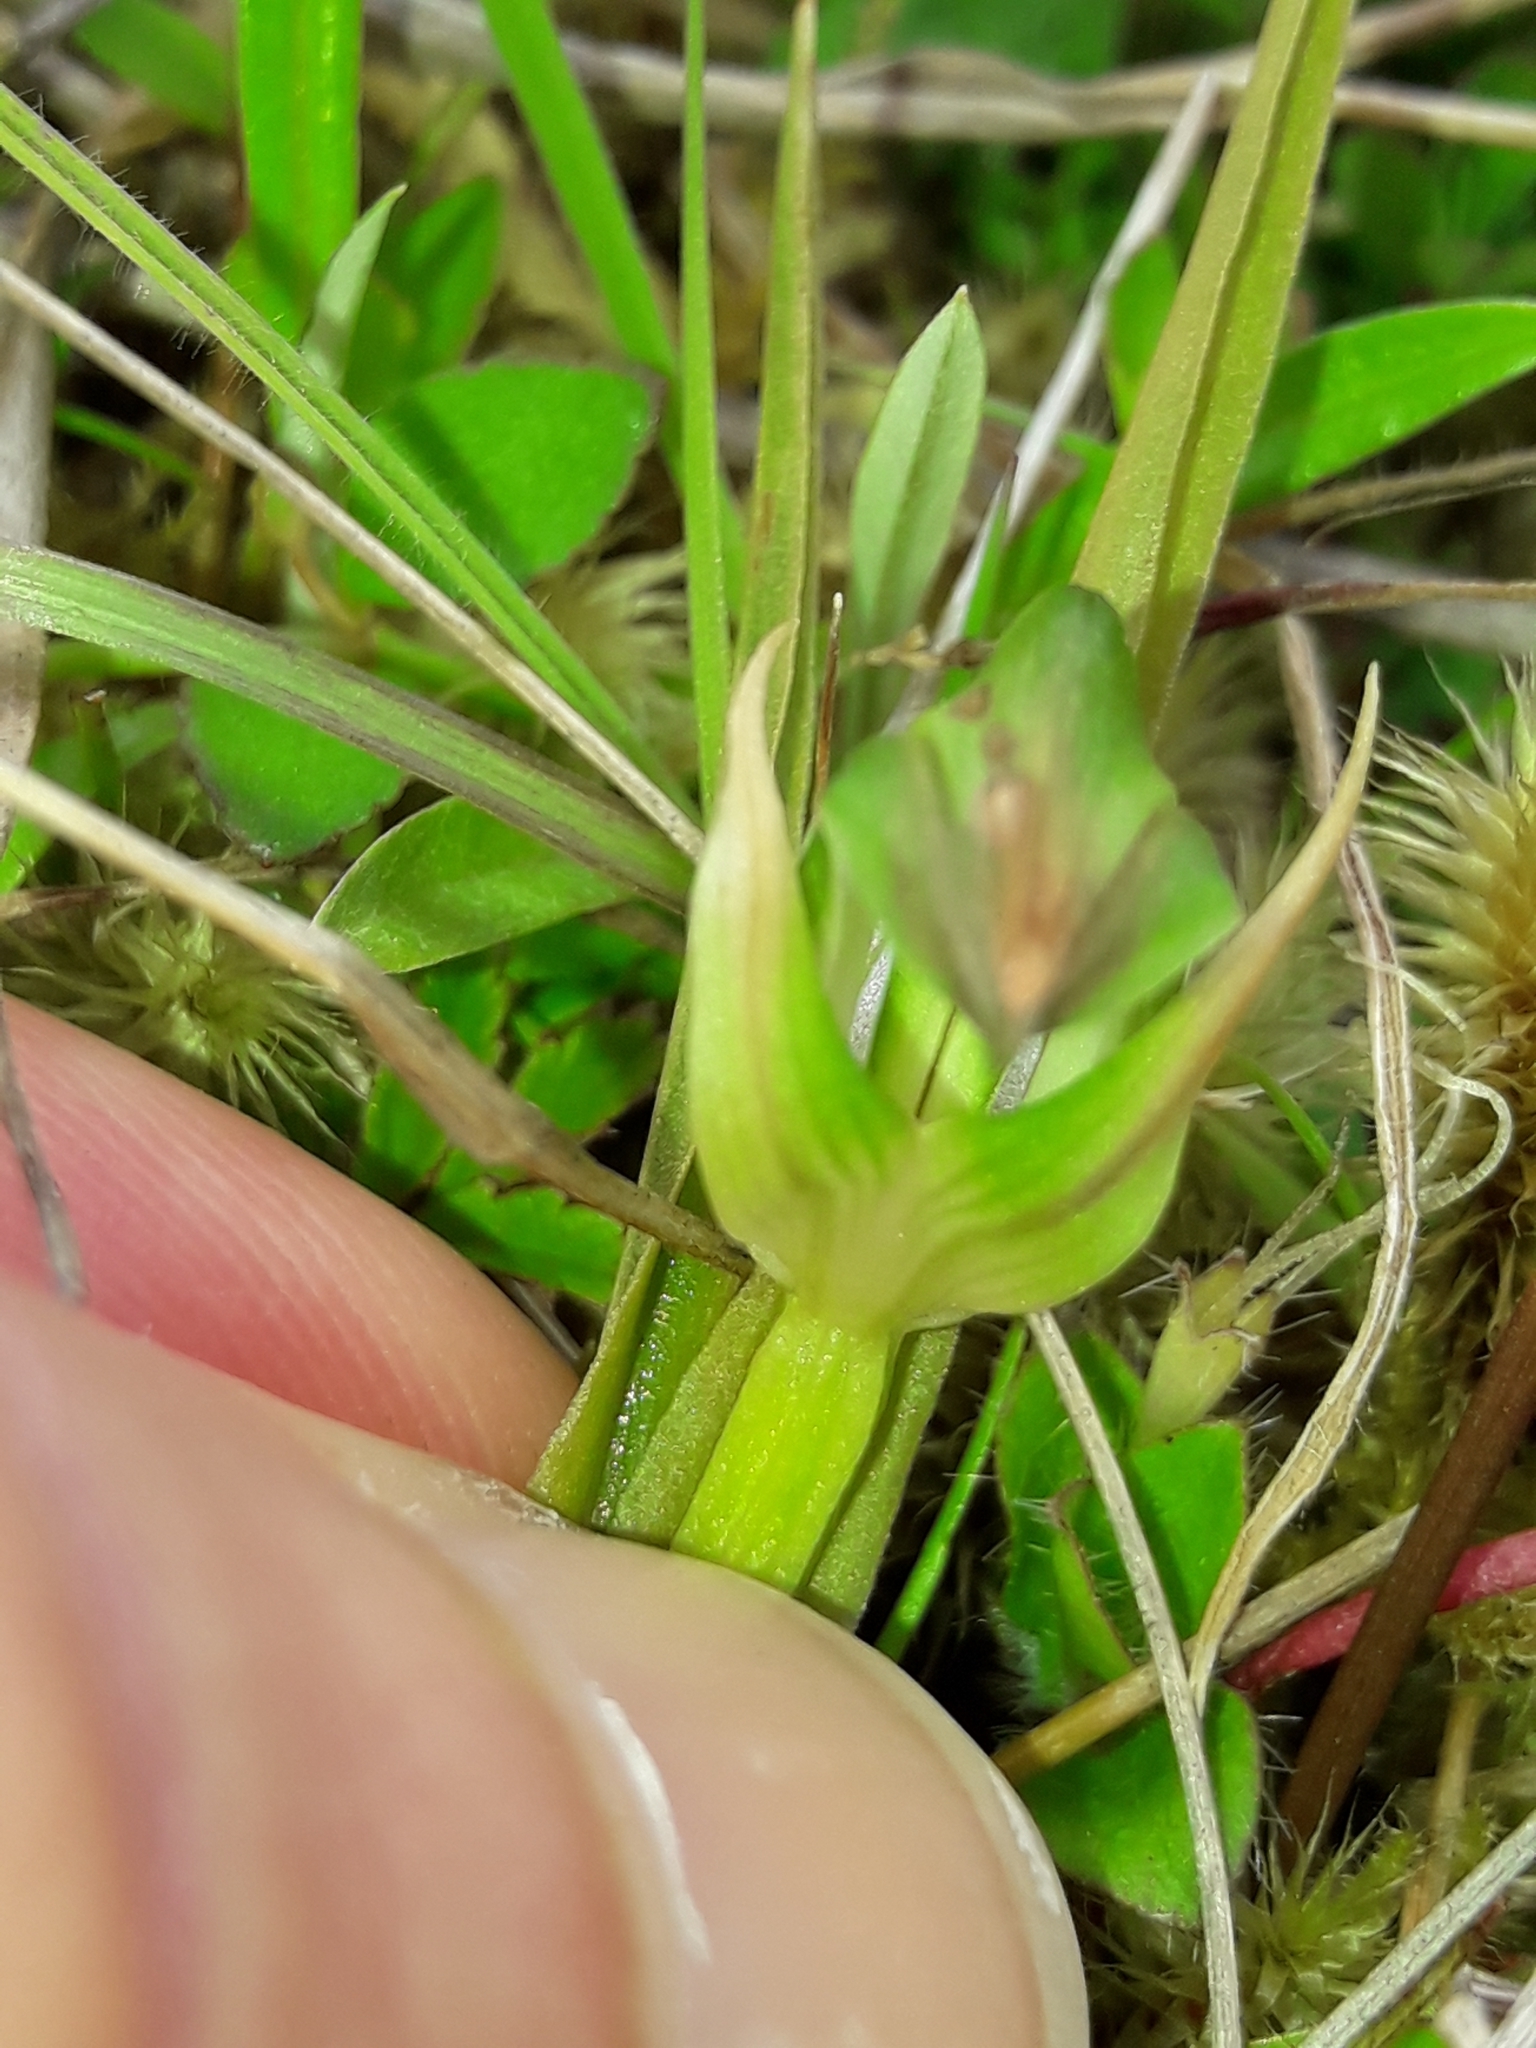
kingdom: Plantae
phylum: Tracheophyta
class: Liliopsida
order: Asparagales
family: Orchidaceae
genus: Pterostylis
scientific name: Pterostylis montana
